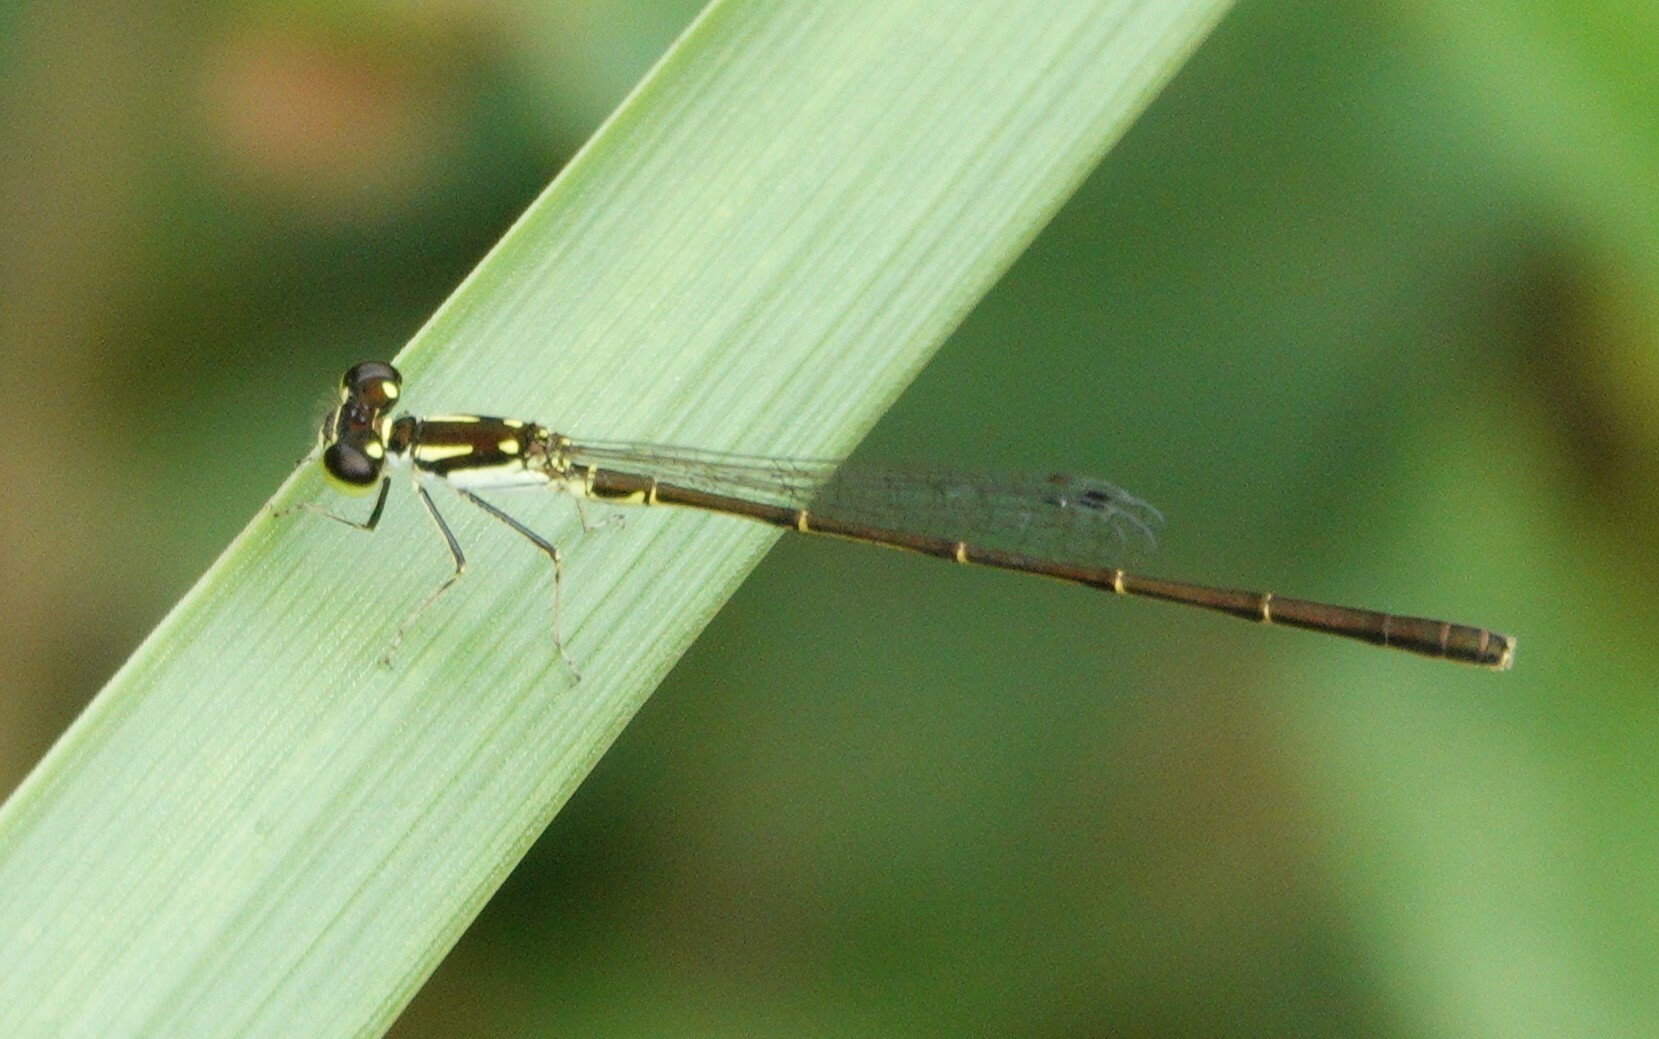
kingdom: Animalia
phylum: Arthropoda
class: Insecta
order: Odonata
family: Coenagrionidae
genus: Ischnura
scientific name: Ischnura posita
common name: Fragile forktail
